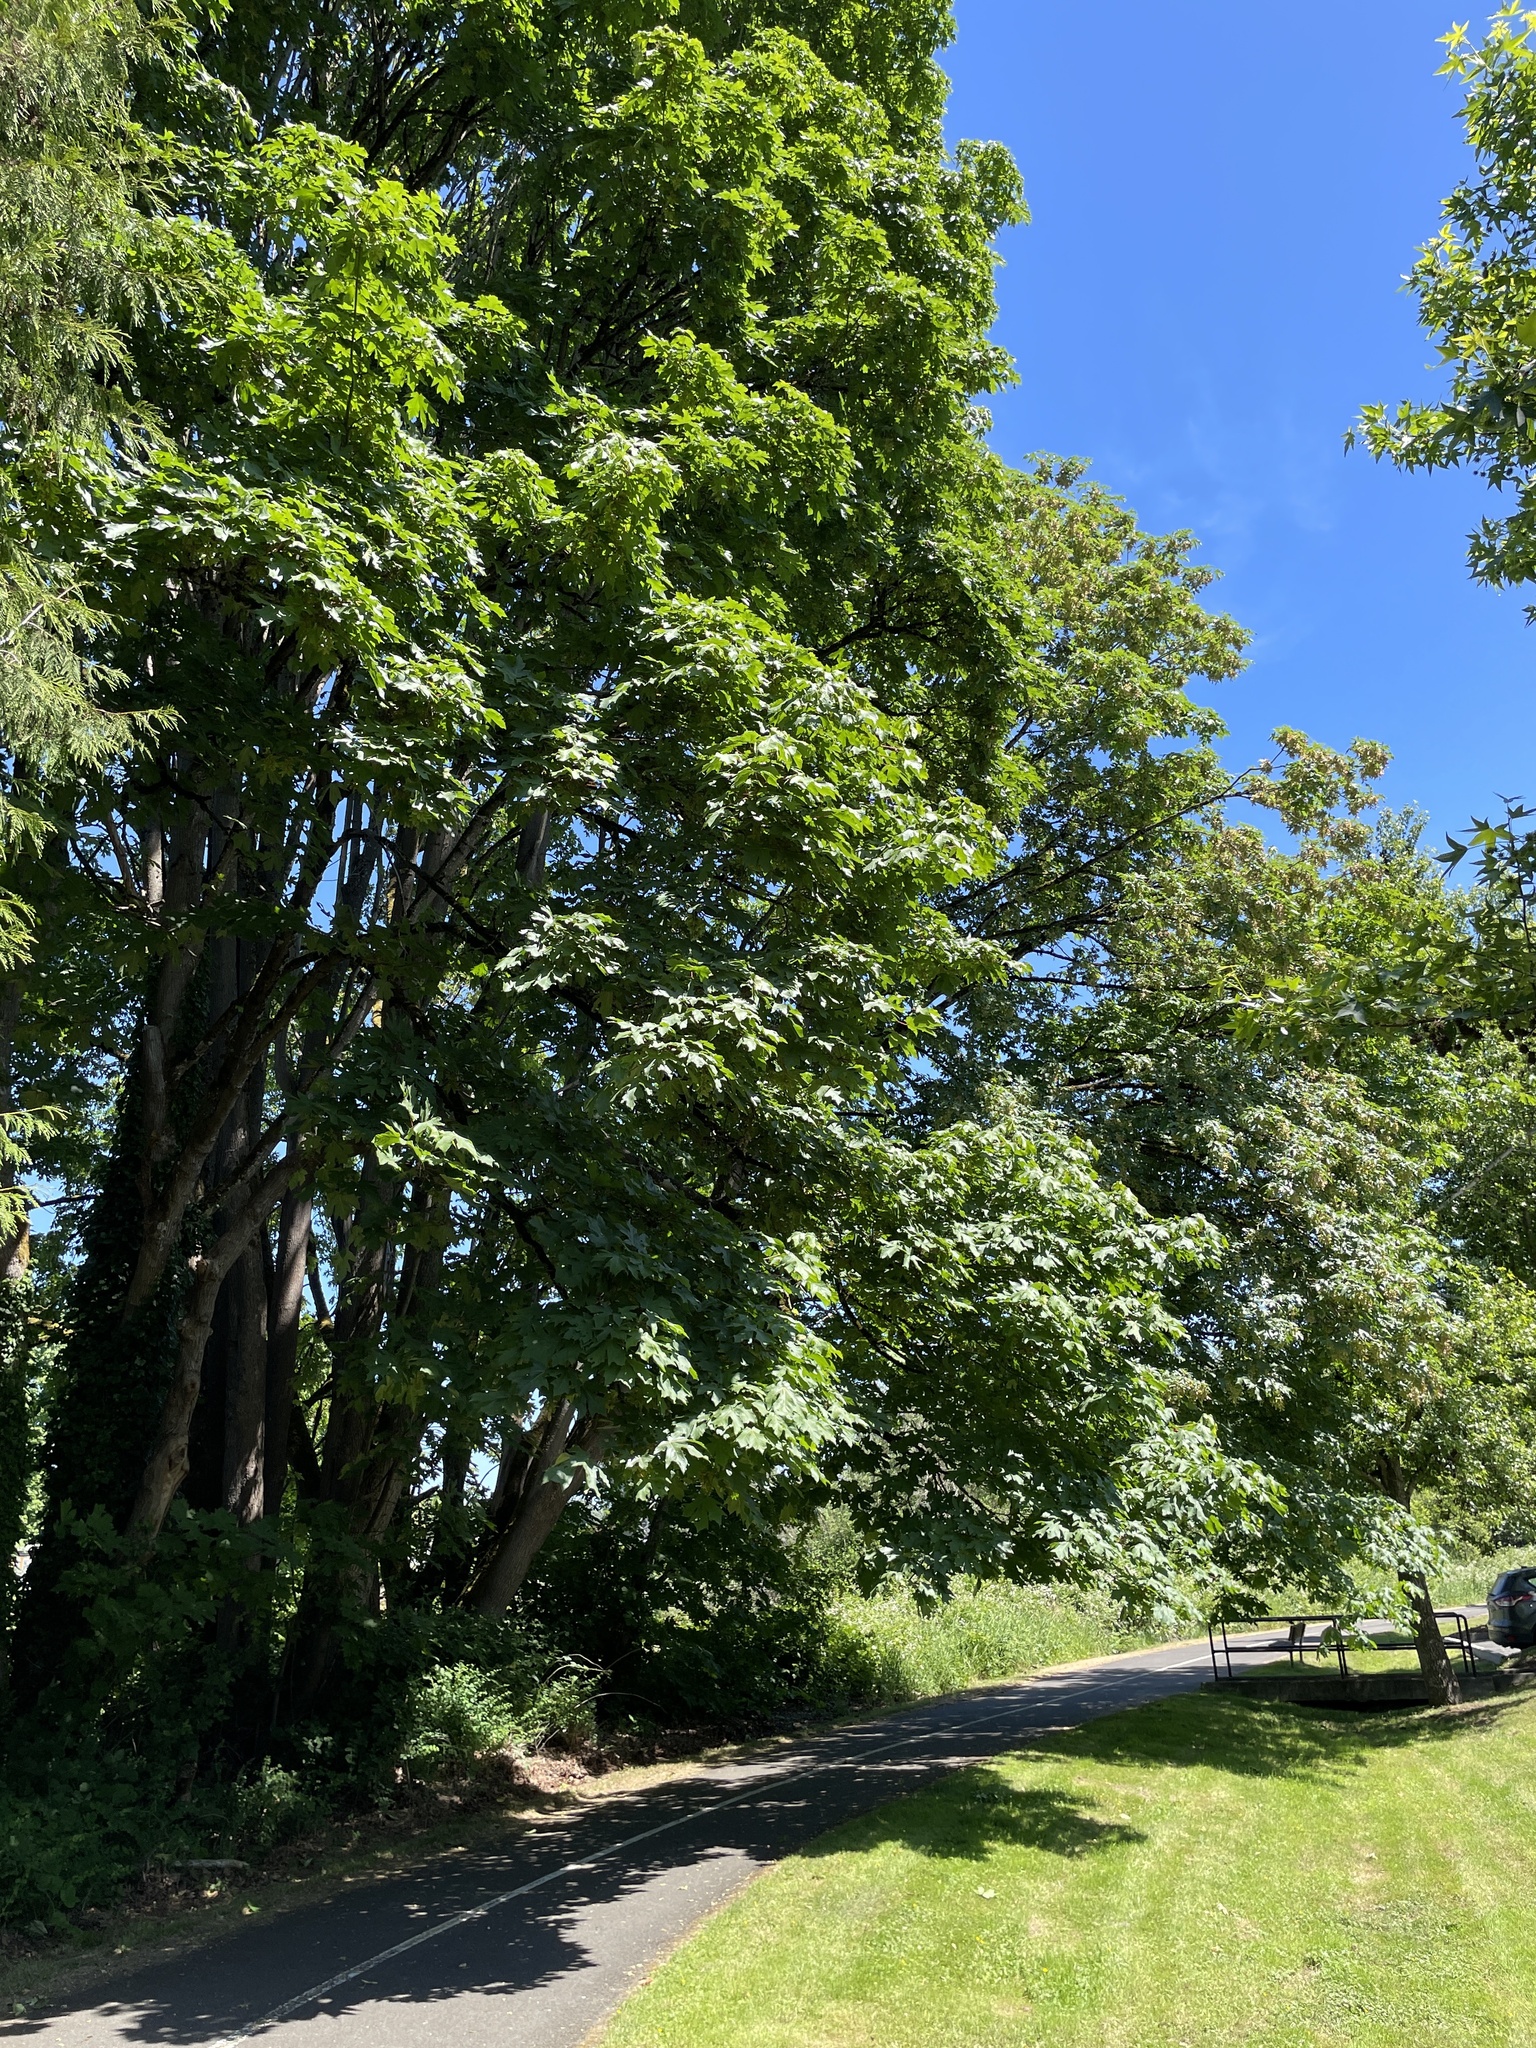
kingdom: Plantae
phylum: Tracheophyta
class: Magnoliopsida
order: Sapindales
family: Sapindaceae
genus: Acer
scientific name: Acer macrophyllum
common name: Oregon maple
